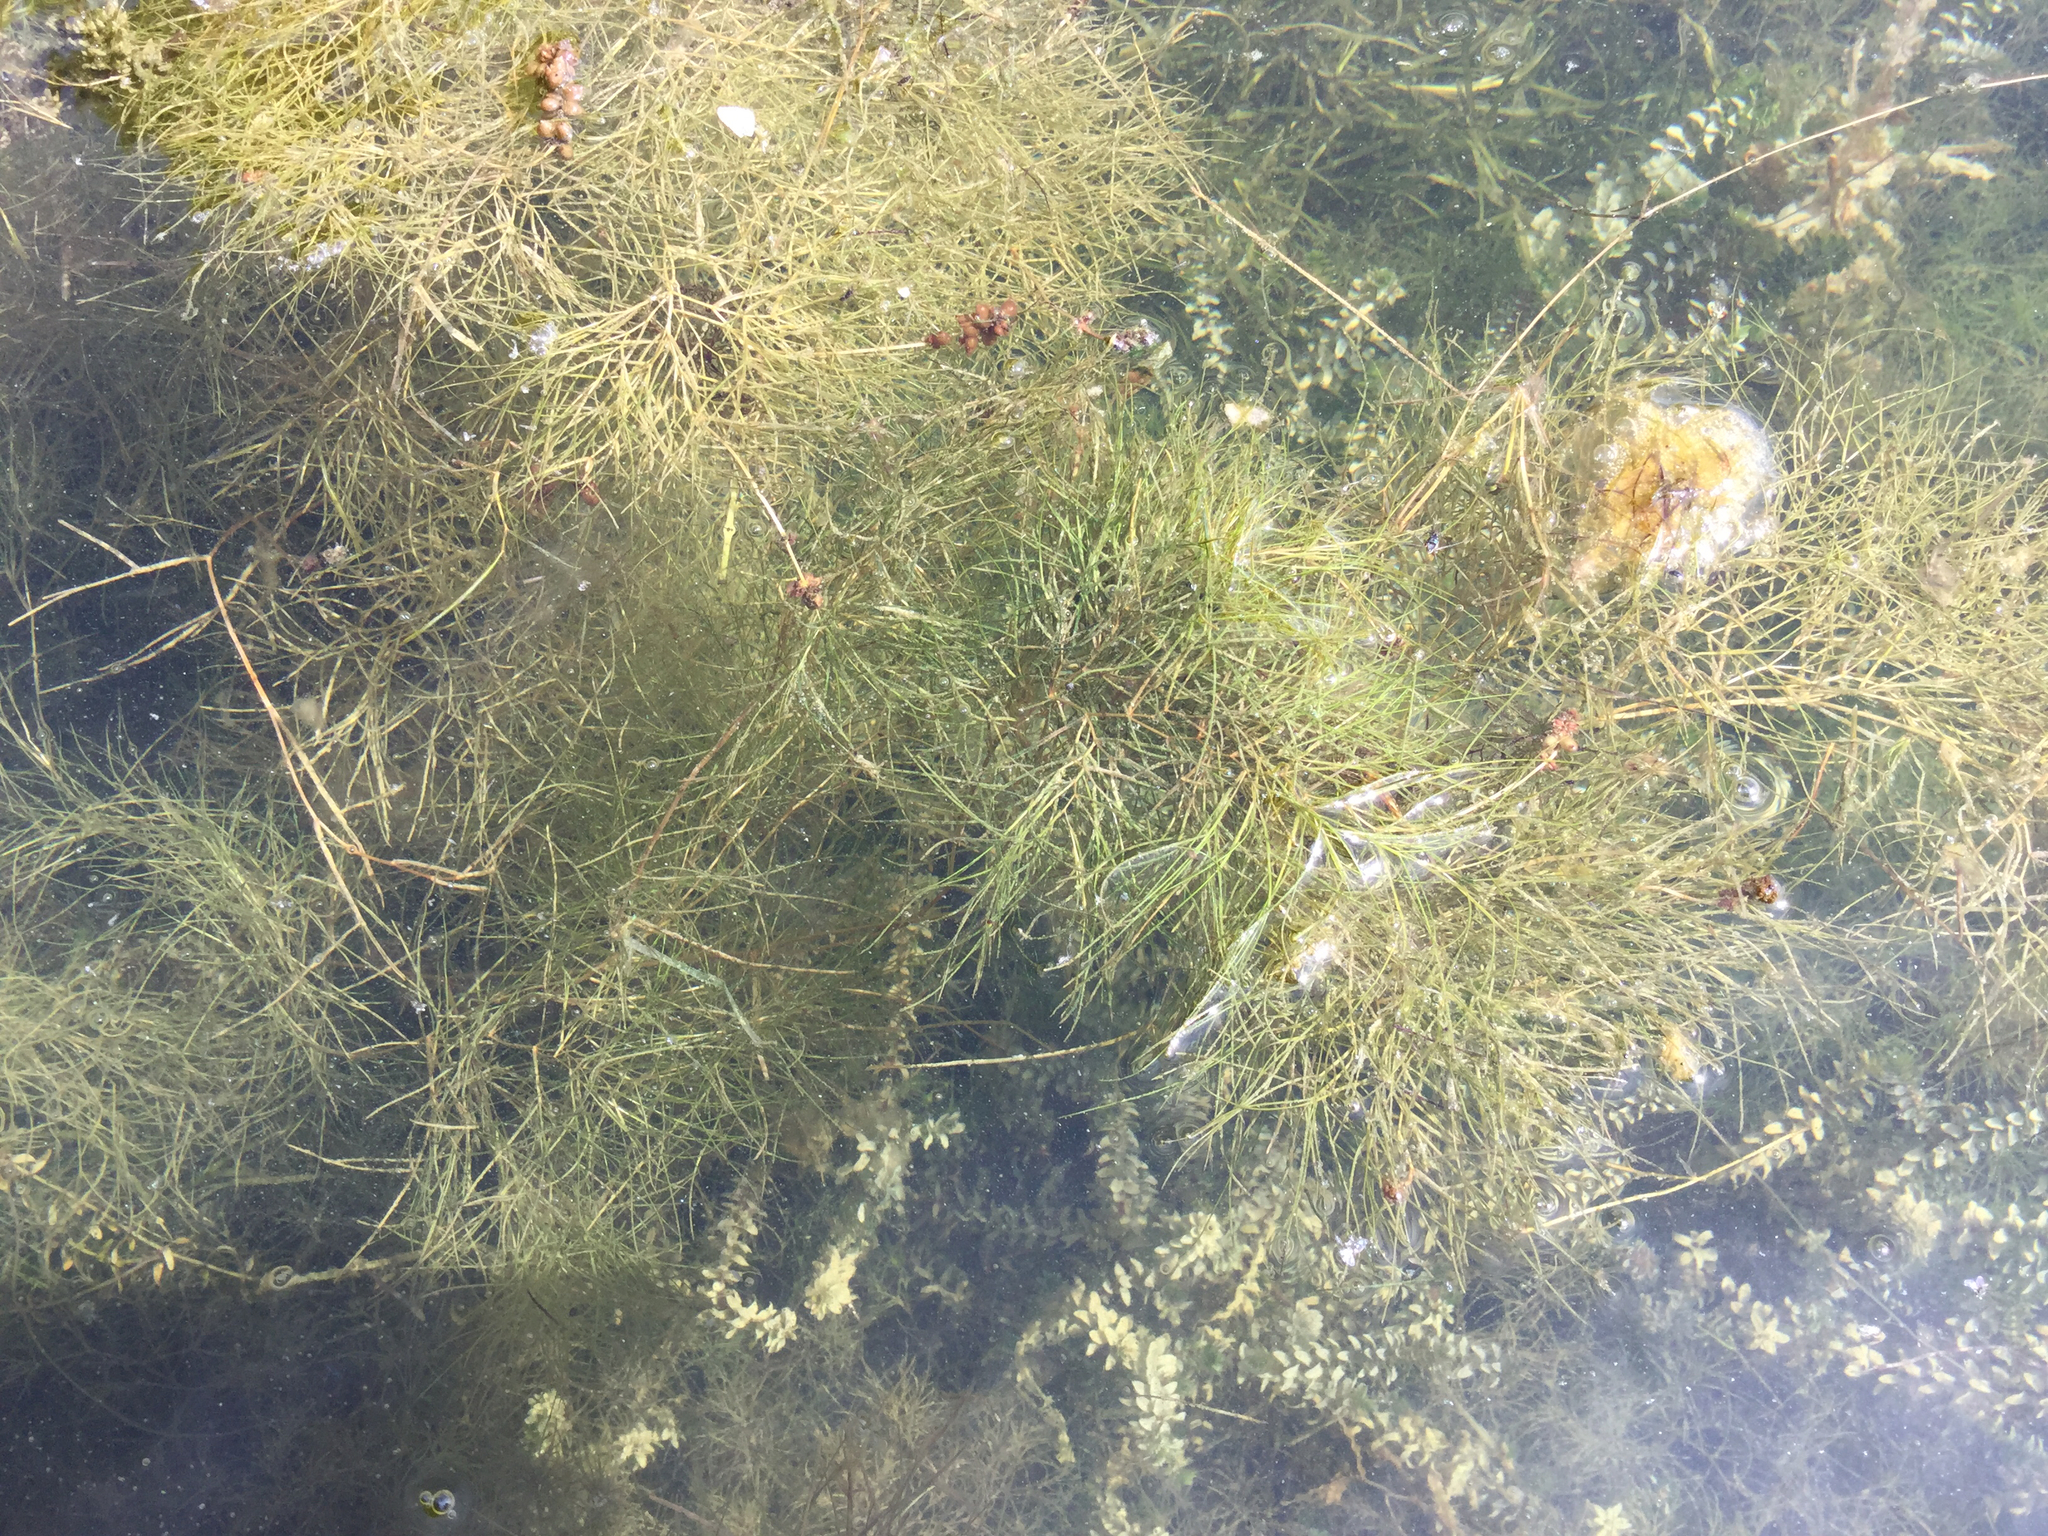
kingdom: Plantae
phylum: Tracheophyta
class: Liliopsida
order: Alismatales
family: Potamogetonaceae
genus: Stuckenia
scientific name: Stuckenia pectinata
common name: Sago pondweed
